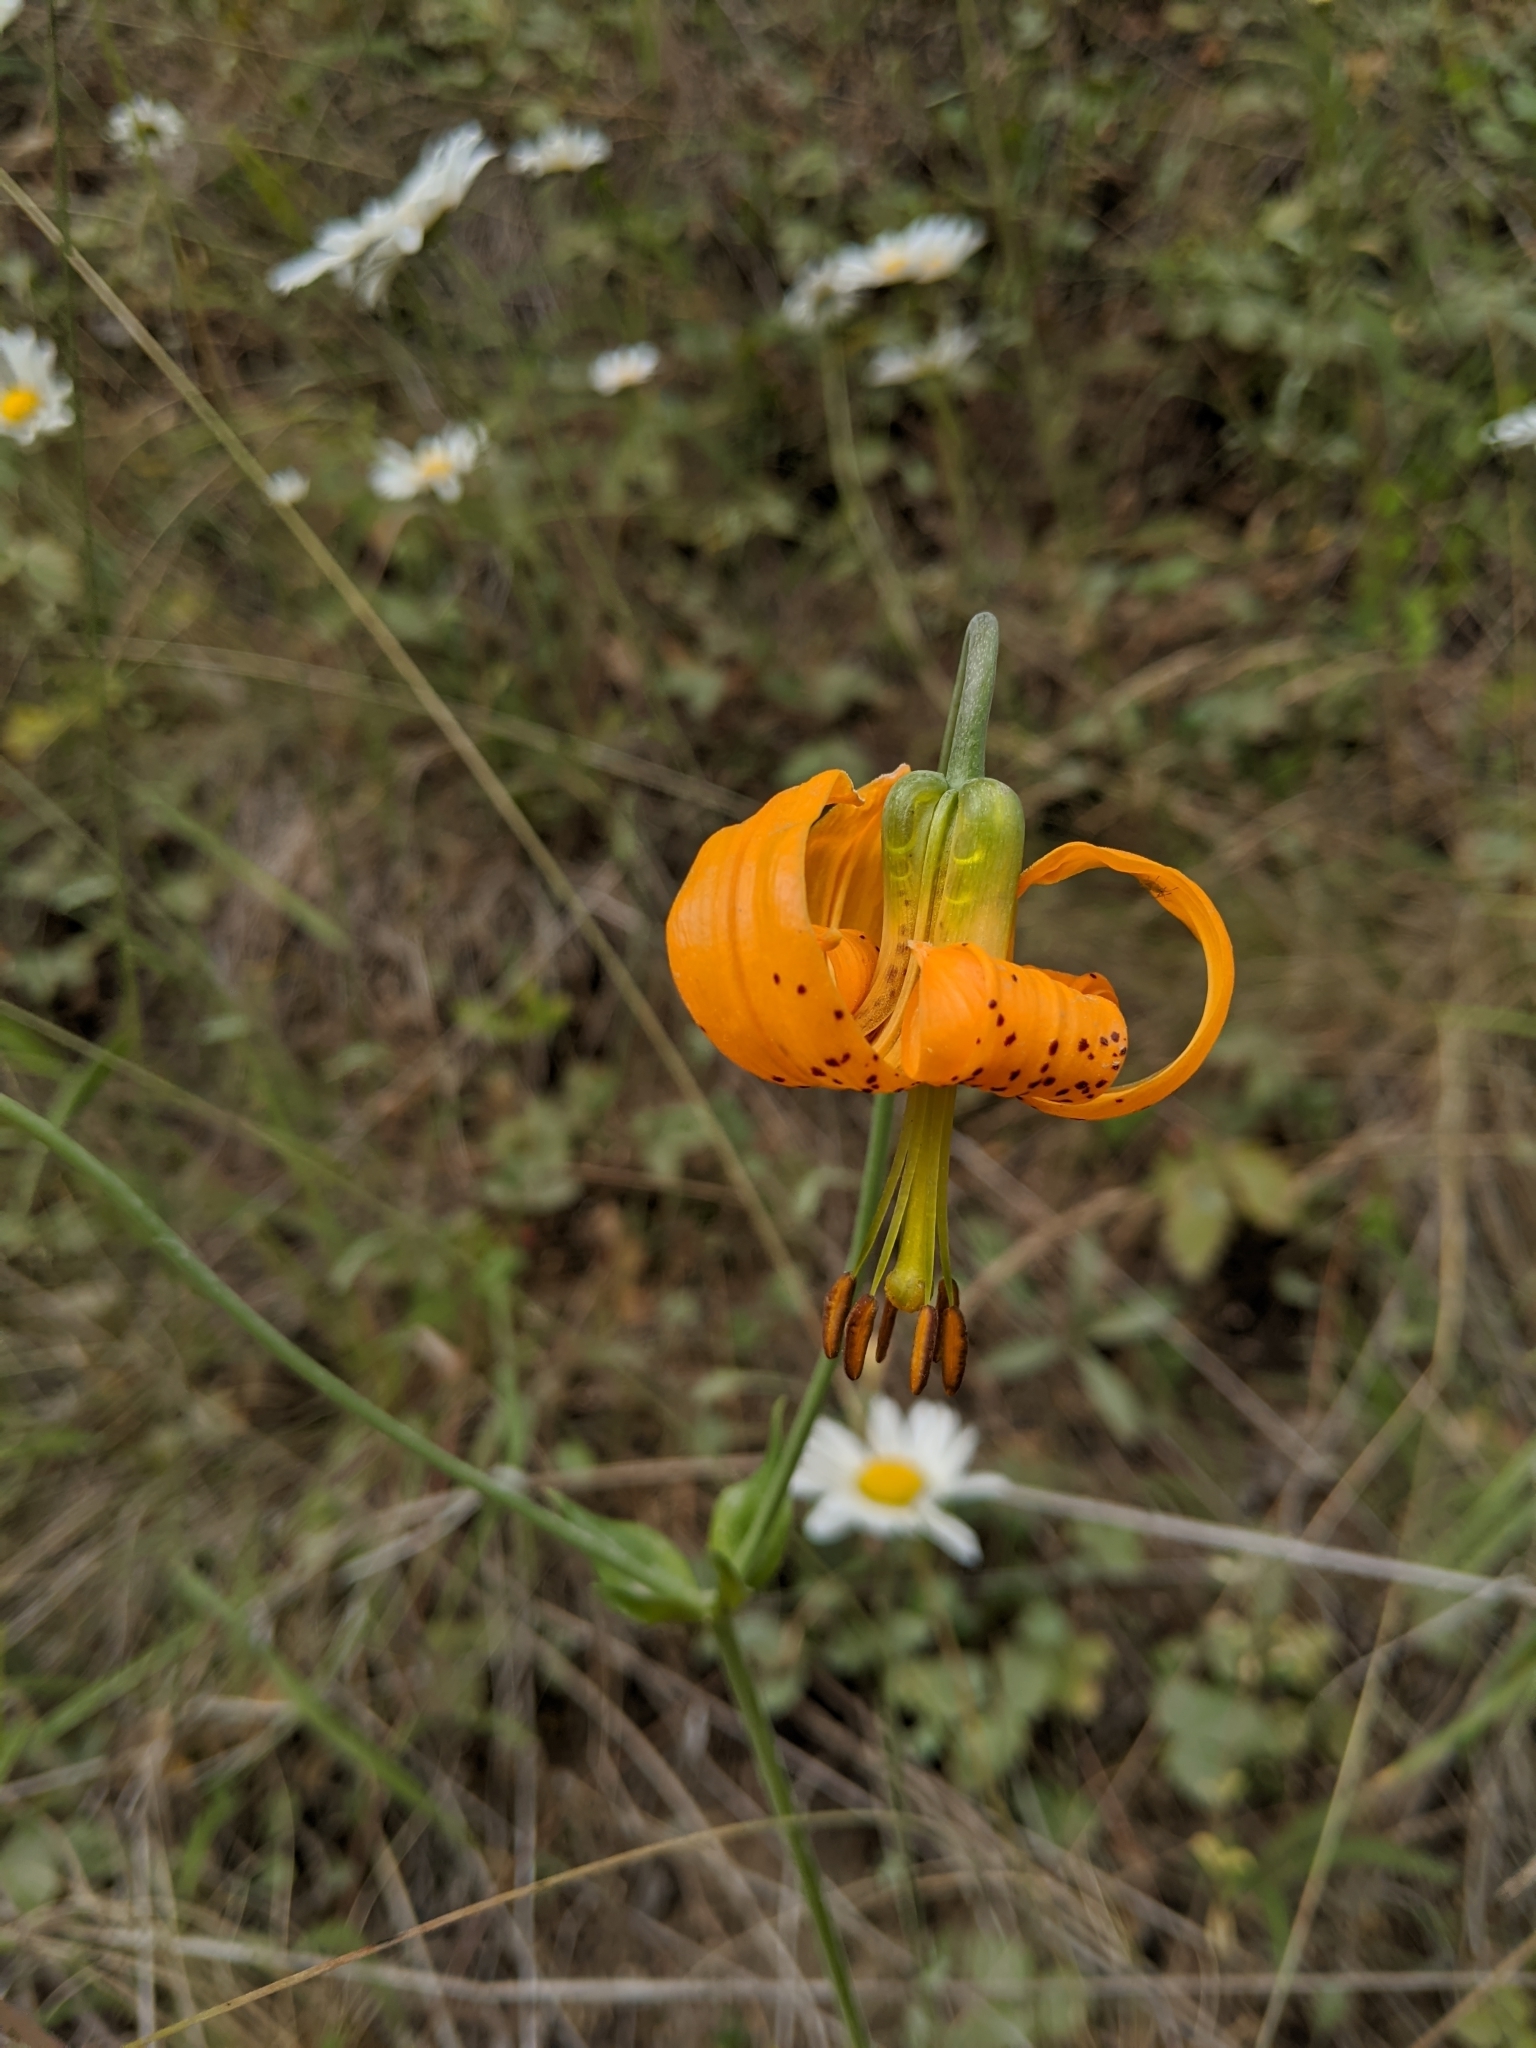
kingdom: Plantae
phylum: Tracheophyta
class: Liliopsida
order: Liliales
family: Liliaceae
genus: Lilium
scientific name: Lilium columbianum
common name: Columbia lily
